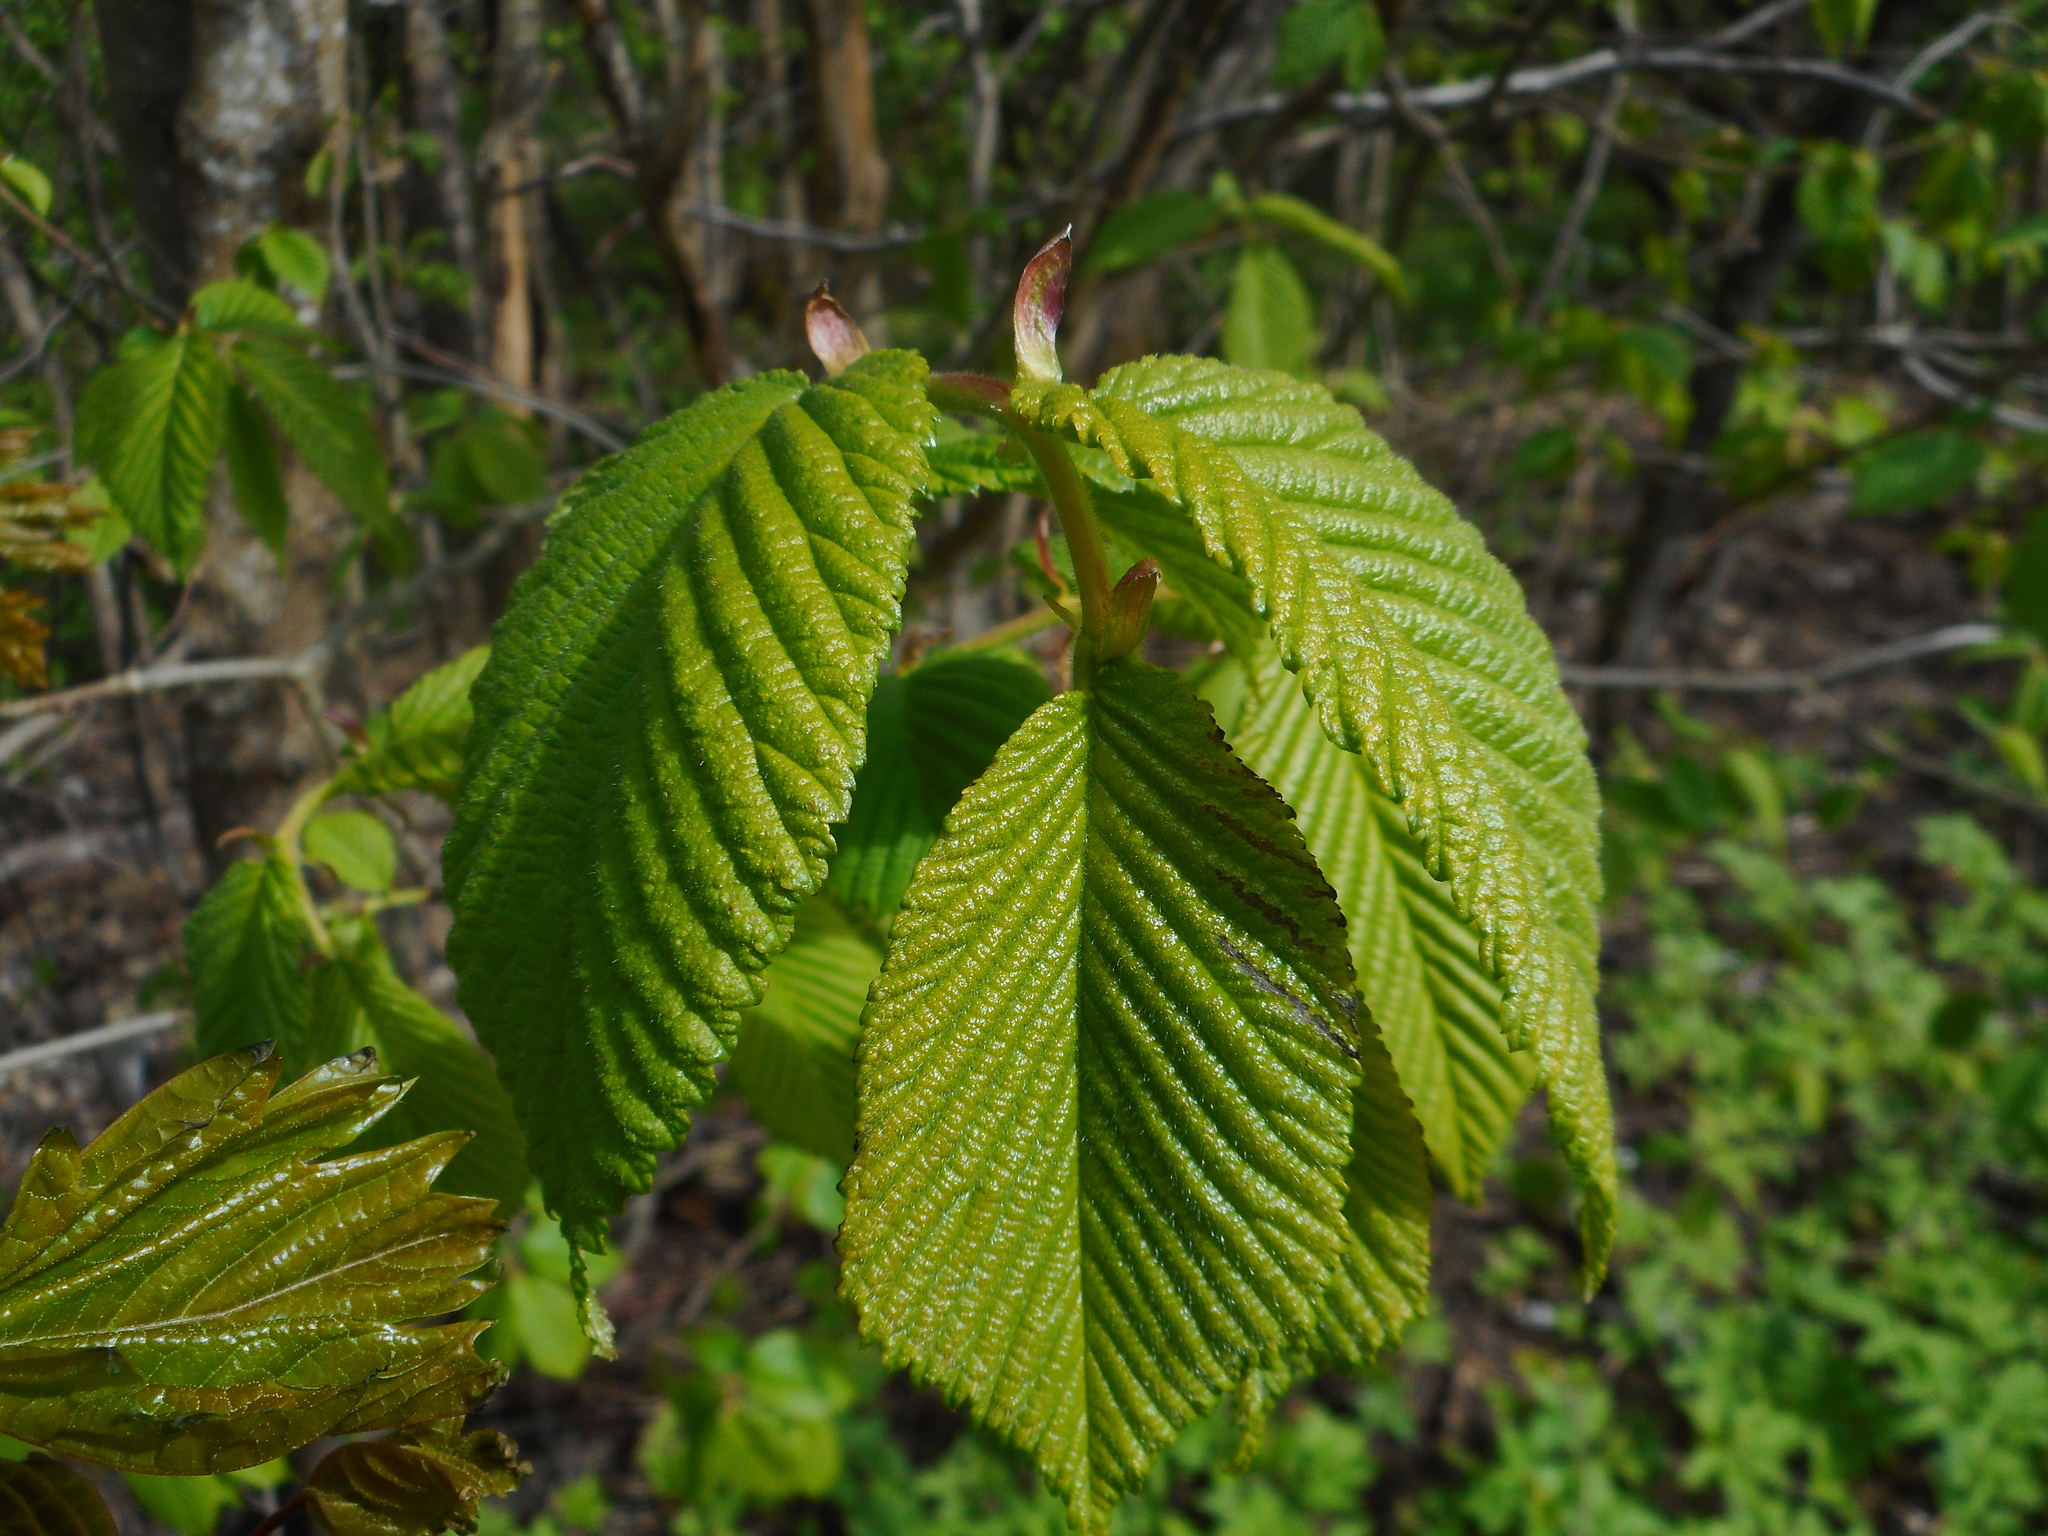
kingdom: Plantae
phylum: Tracheophyta
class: Magnoliopsida
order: Rosales
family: Ulmaceae
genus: Ulmus
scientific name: Ulmus glabra
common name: Wych elm
